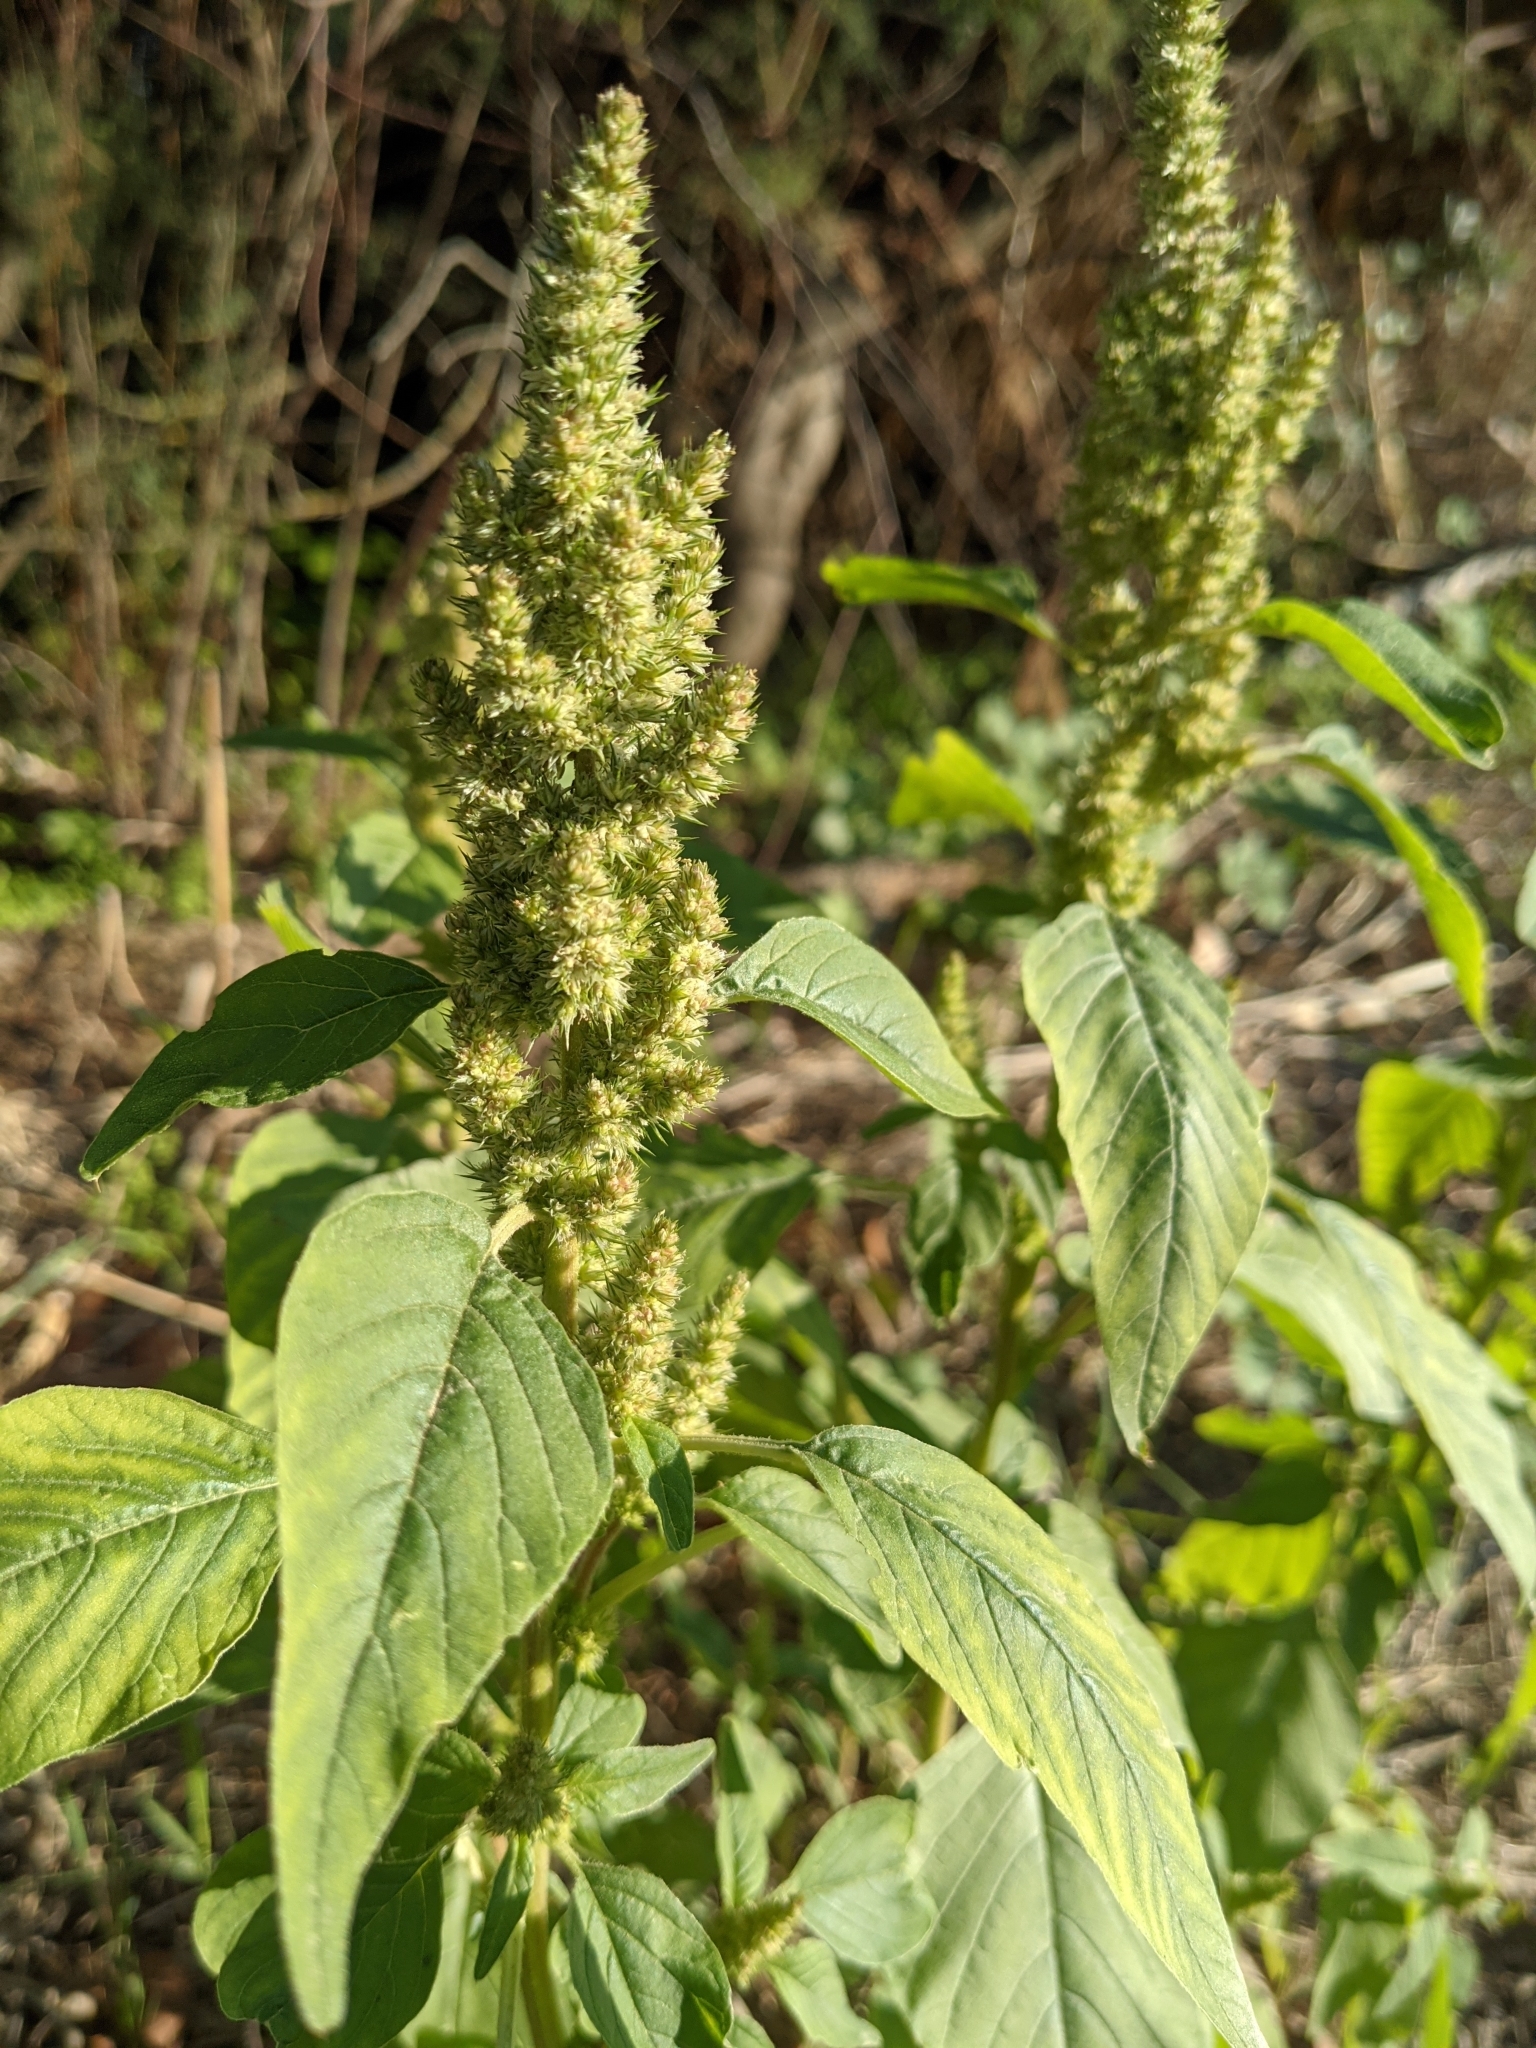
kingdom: Plantae
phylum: Tracheophyta
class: Magnoliopsida
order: Caryophyllales
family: Amaranthaceae
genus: Amaranthus
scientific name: Amaranthus retroflexus
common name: Redroot amaranth
